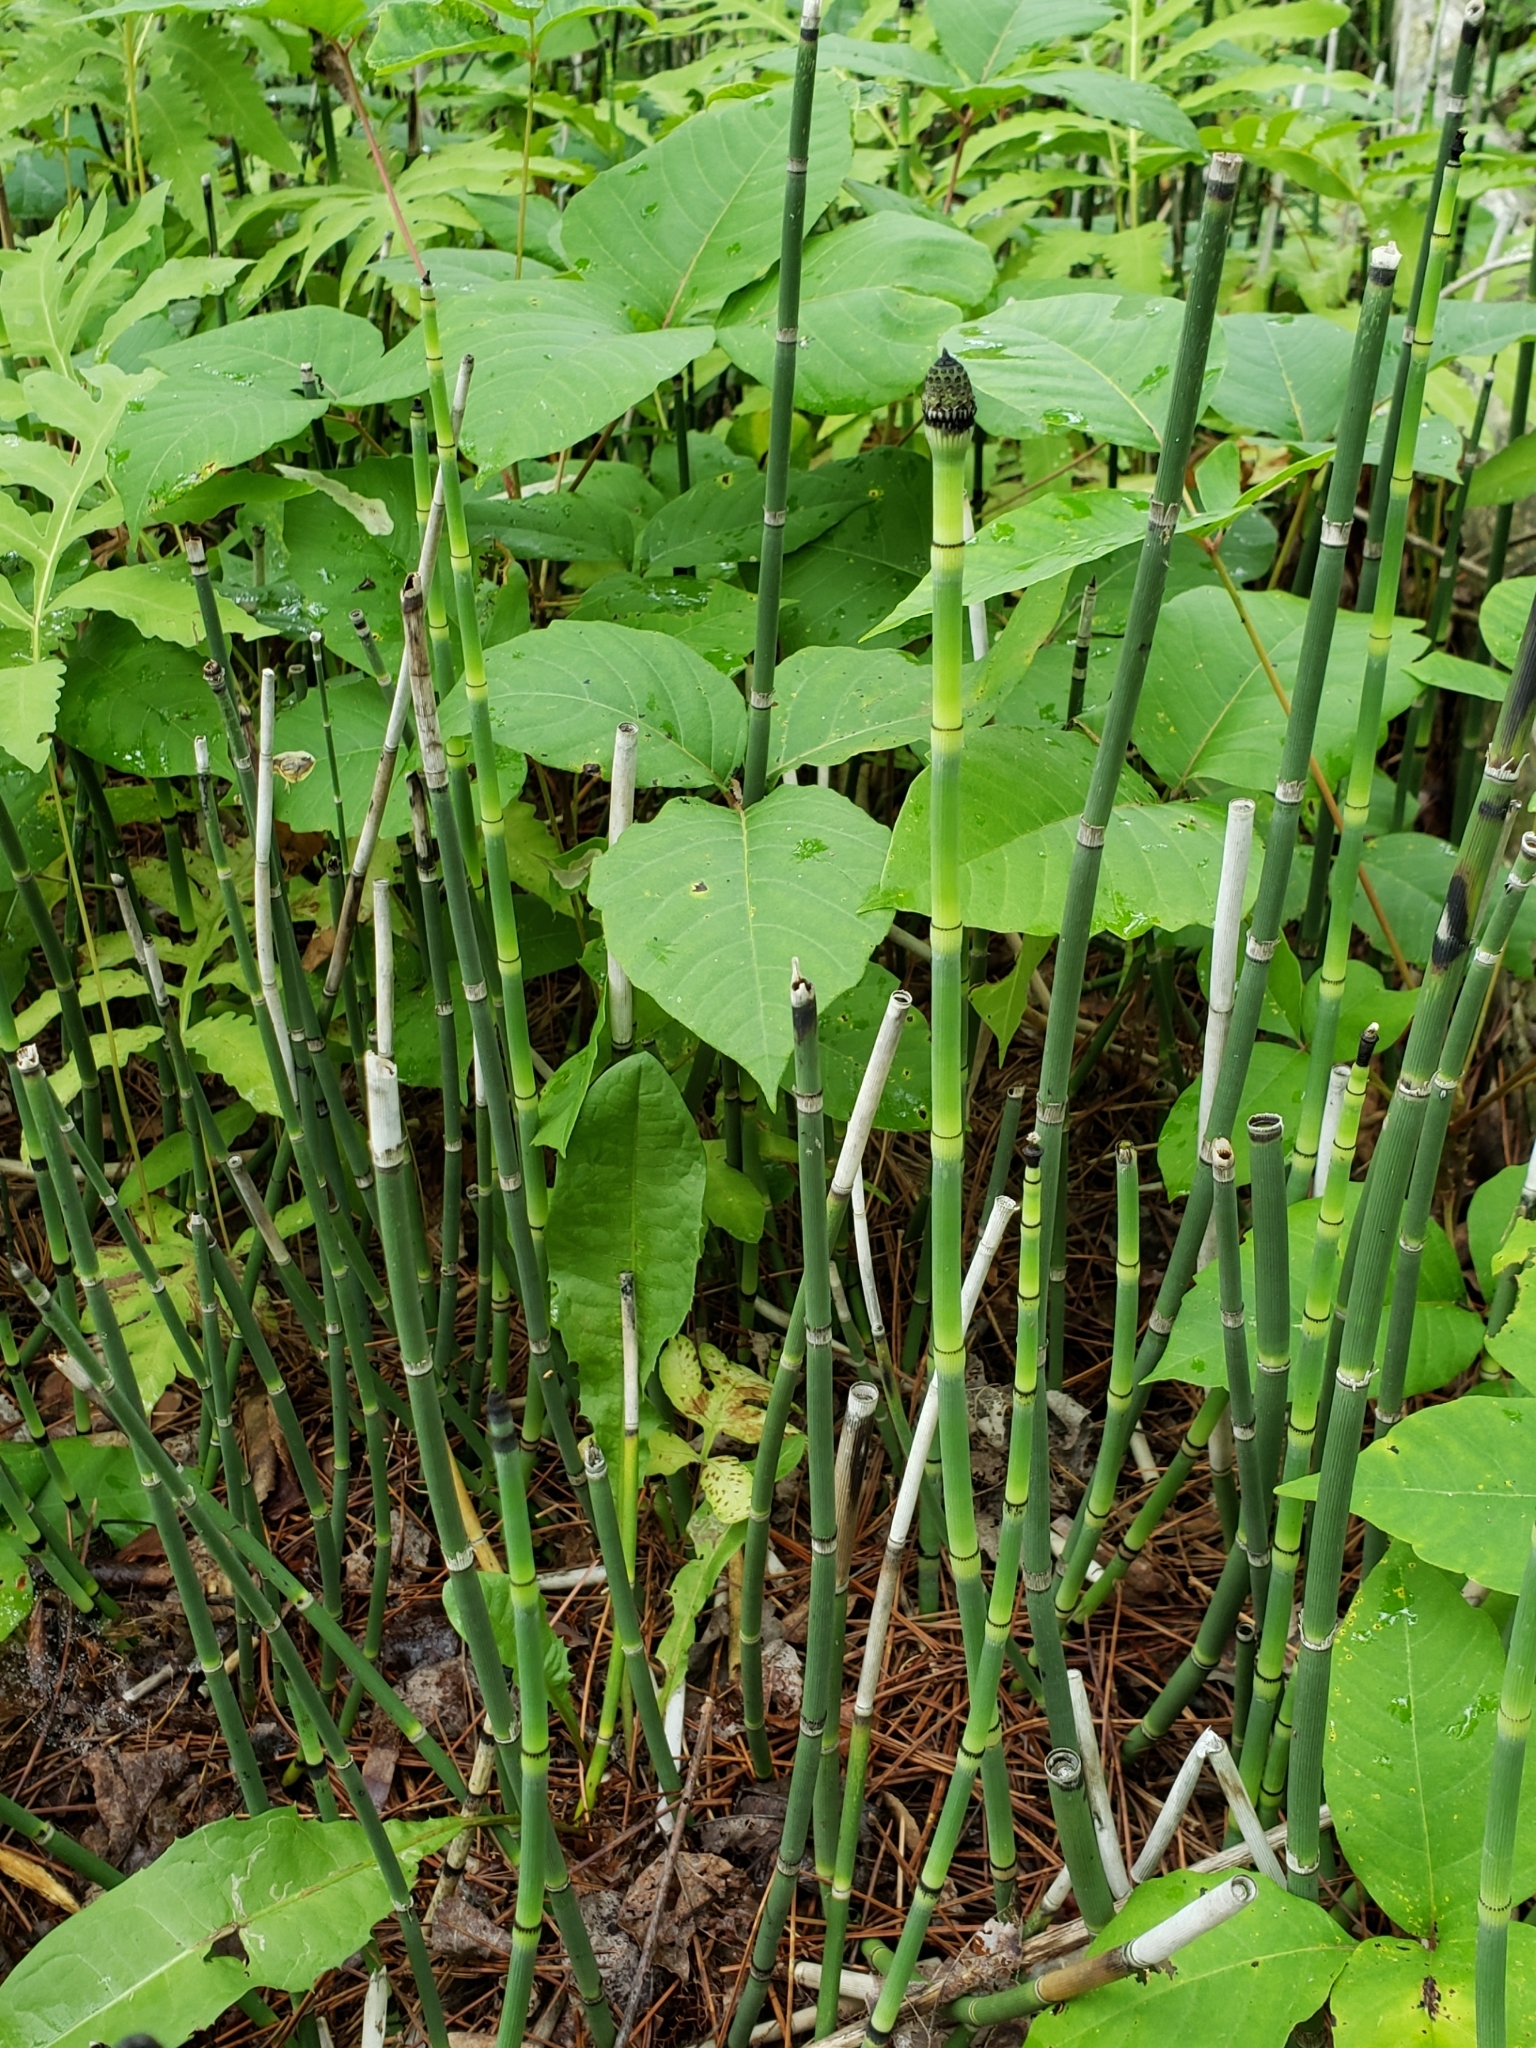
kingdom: Plantae
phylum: Tracheophyta
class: Polypodiopsida
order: Equisetales
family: Equisetaceae
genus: Equisetum
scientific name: Equisetum hyemale
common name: Rough horsetail
